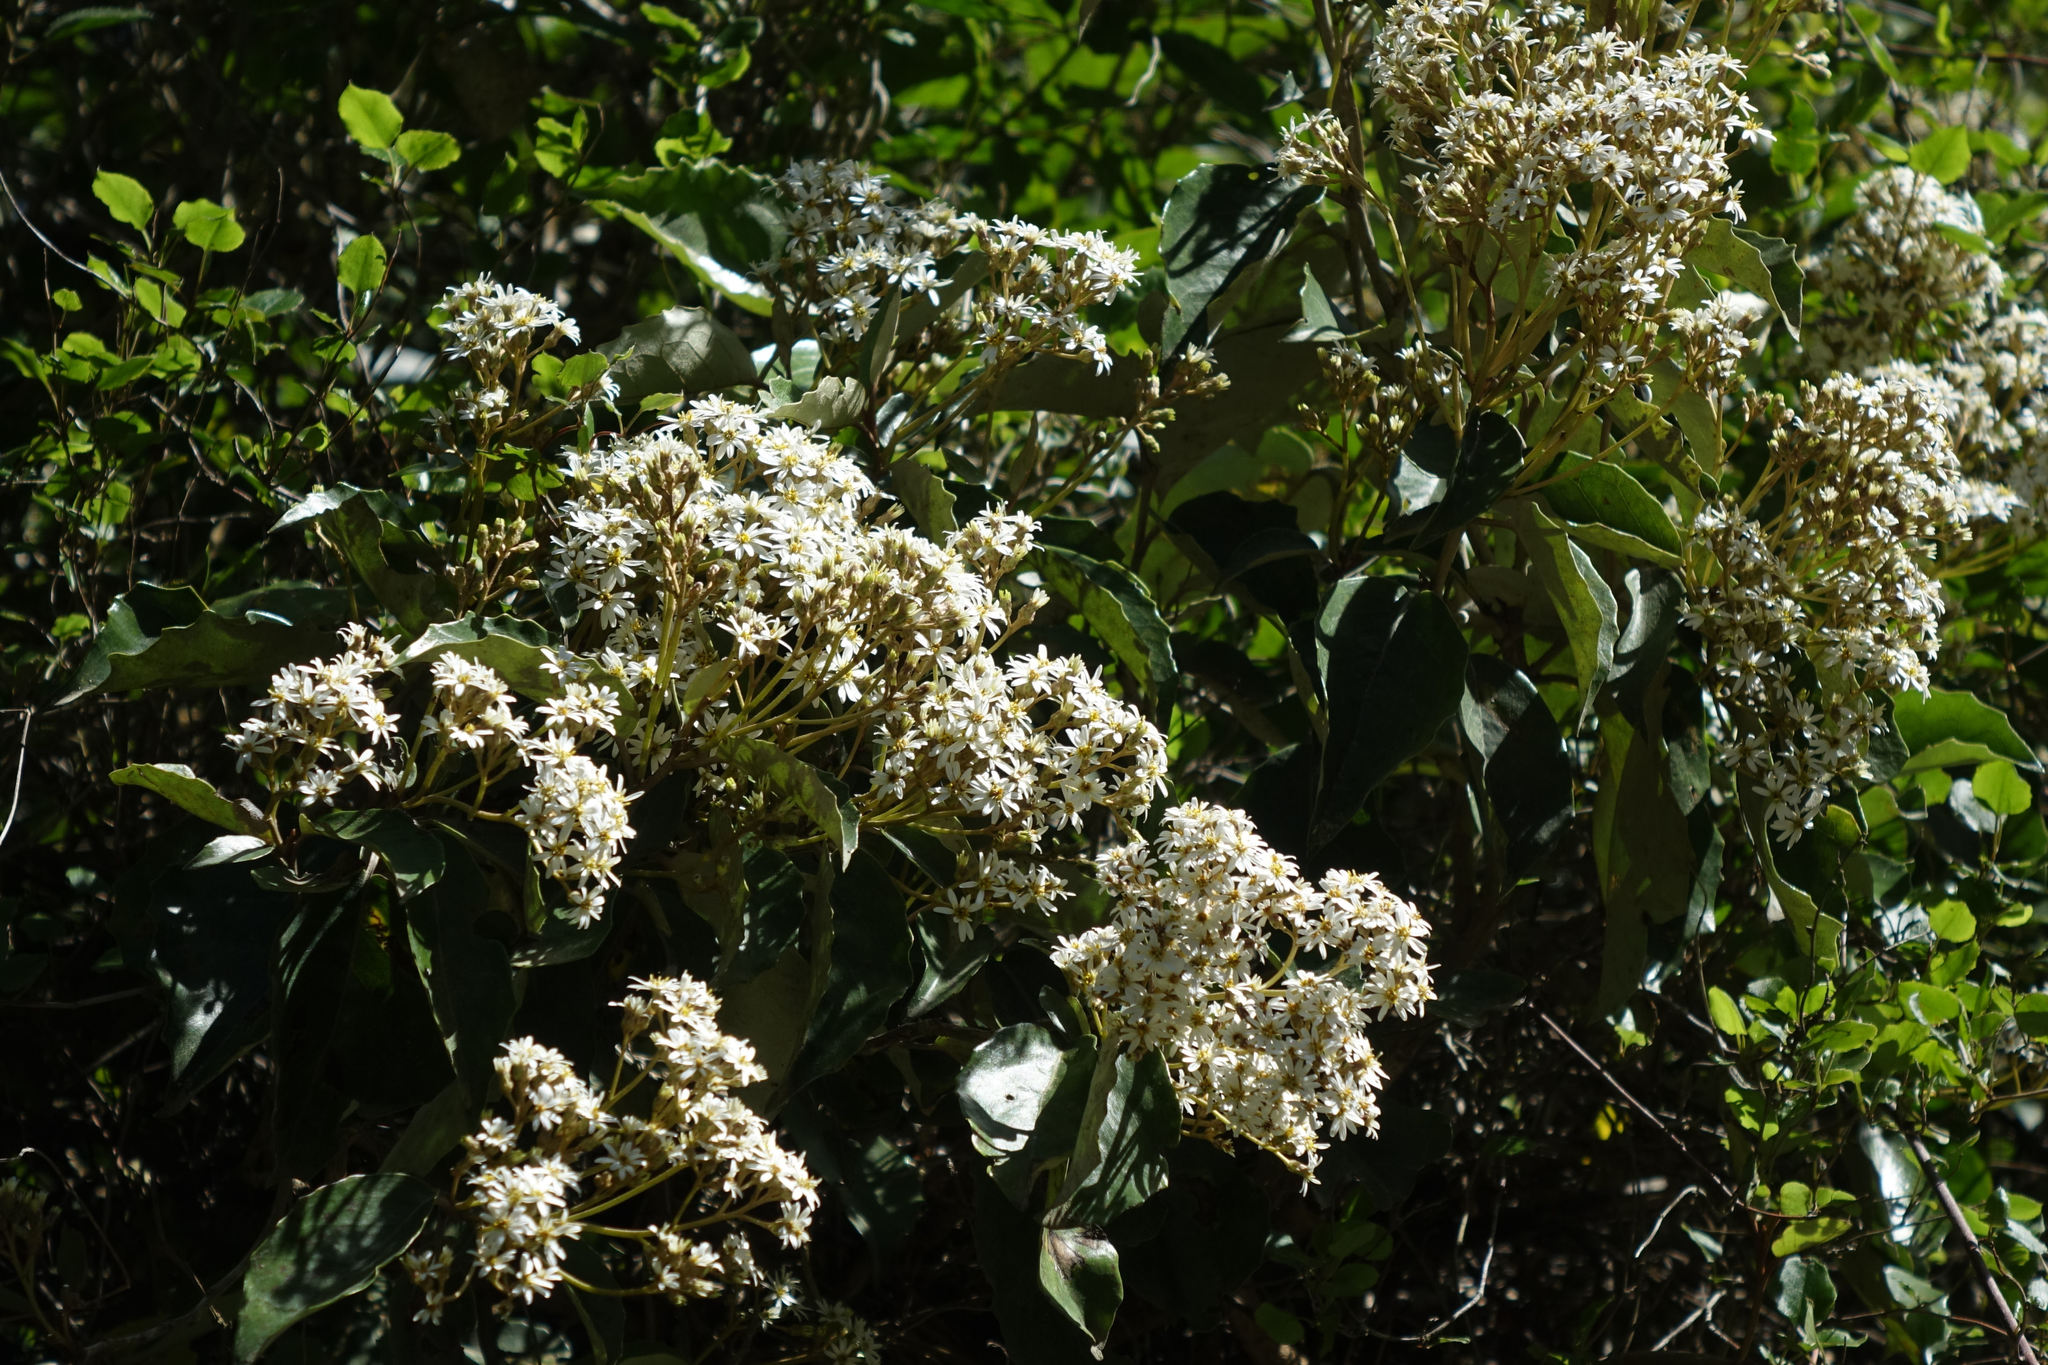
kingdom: Plantae
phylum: Tracheophyta
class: Magnoliopsida
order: Asterales
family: Asteraceae
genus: Olearia
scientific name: Olearia arborescens
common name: Glossy tree daisy
